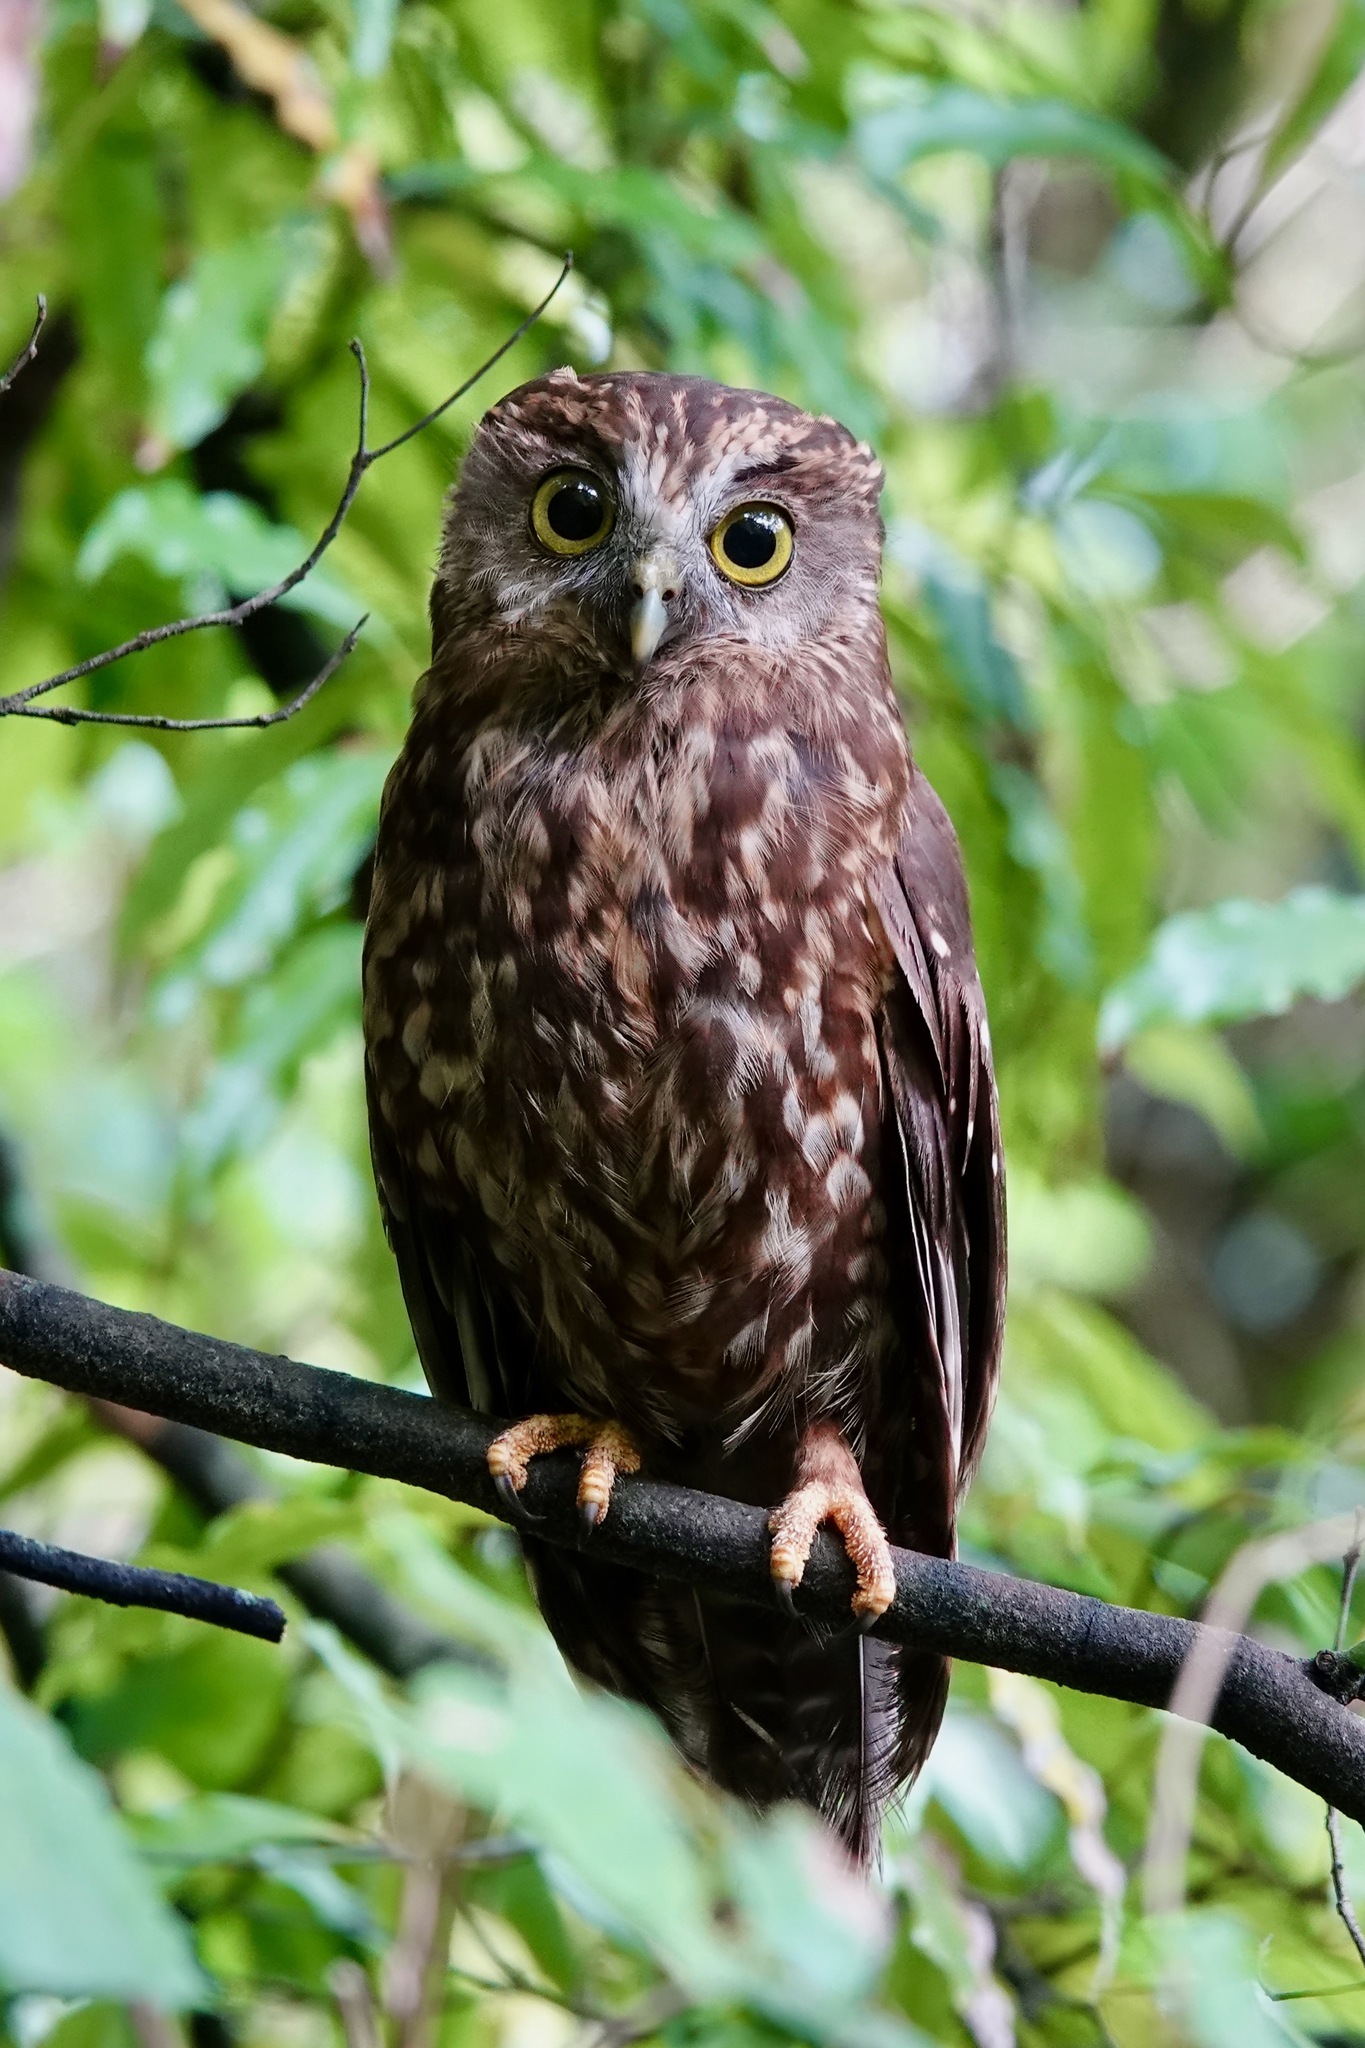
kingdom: Animalia
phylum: Chordata
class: Aves
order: Strigiformes
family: Strigidae
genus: Ninox
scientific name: Ninox novaeseelandiae
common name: Morepork
